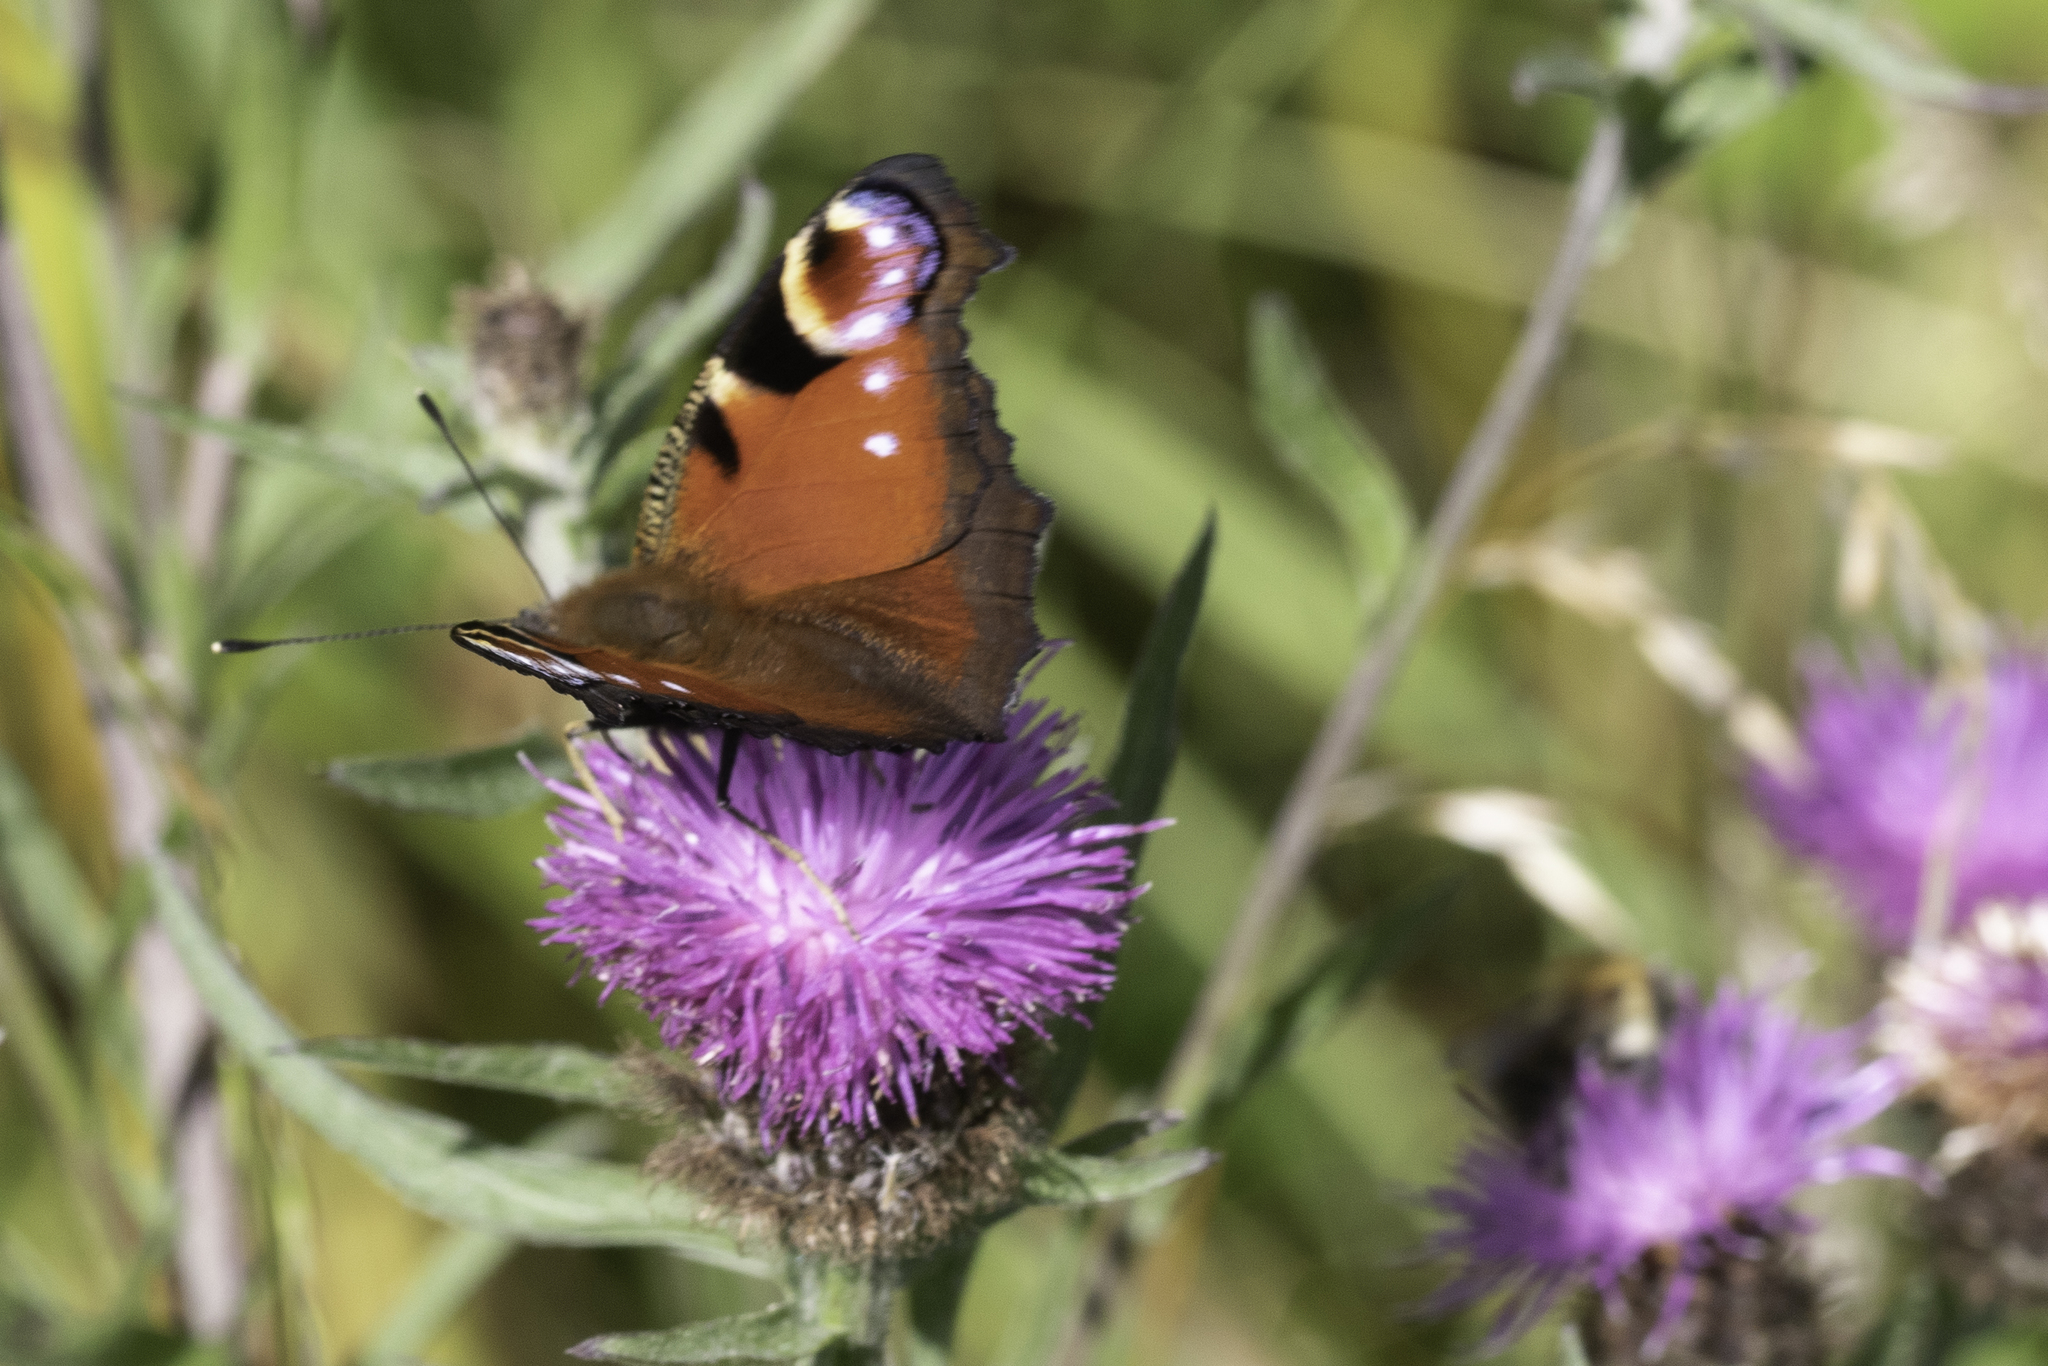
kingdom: Animalia
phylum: Arthropoda
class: Insecta
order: Lepidoptera
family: Nymphalidae
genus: Aglais
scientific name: Aglais io
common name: Peacock
